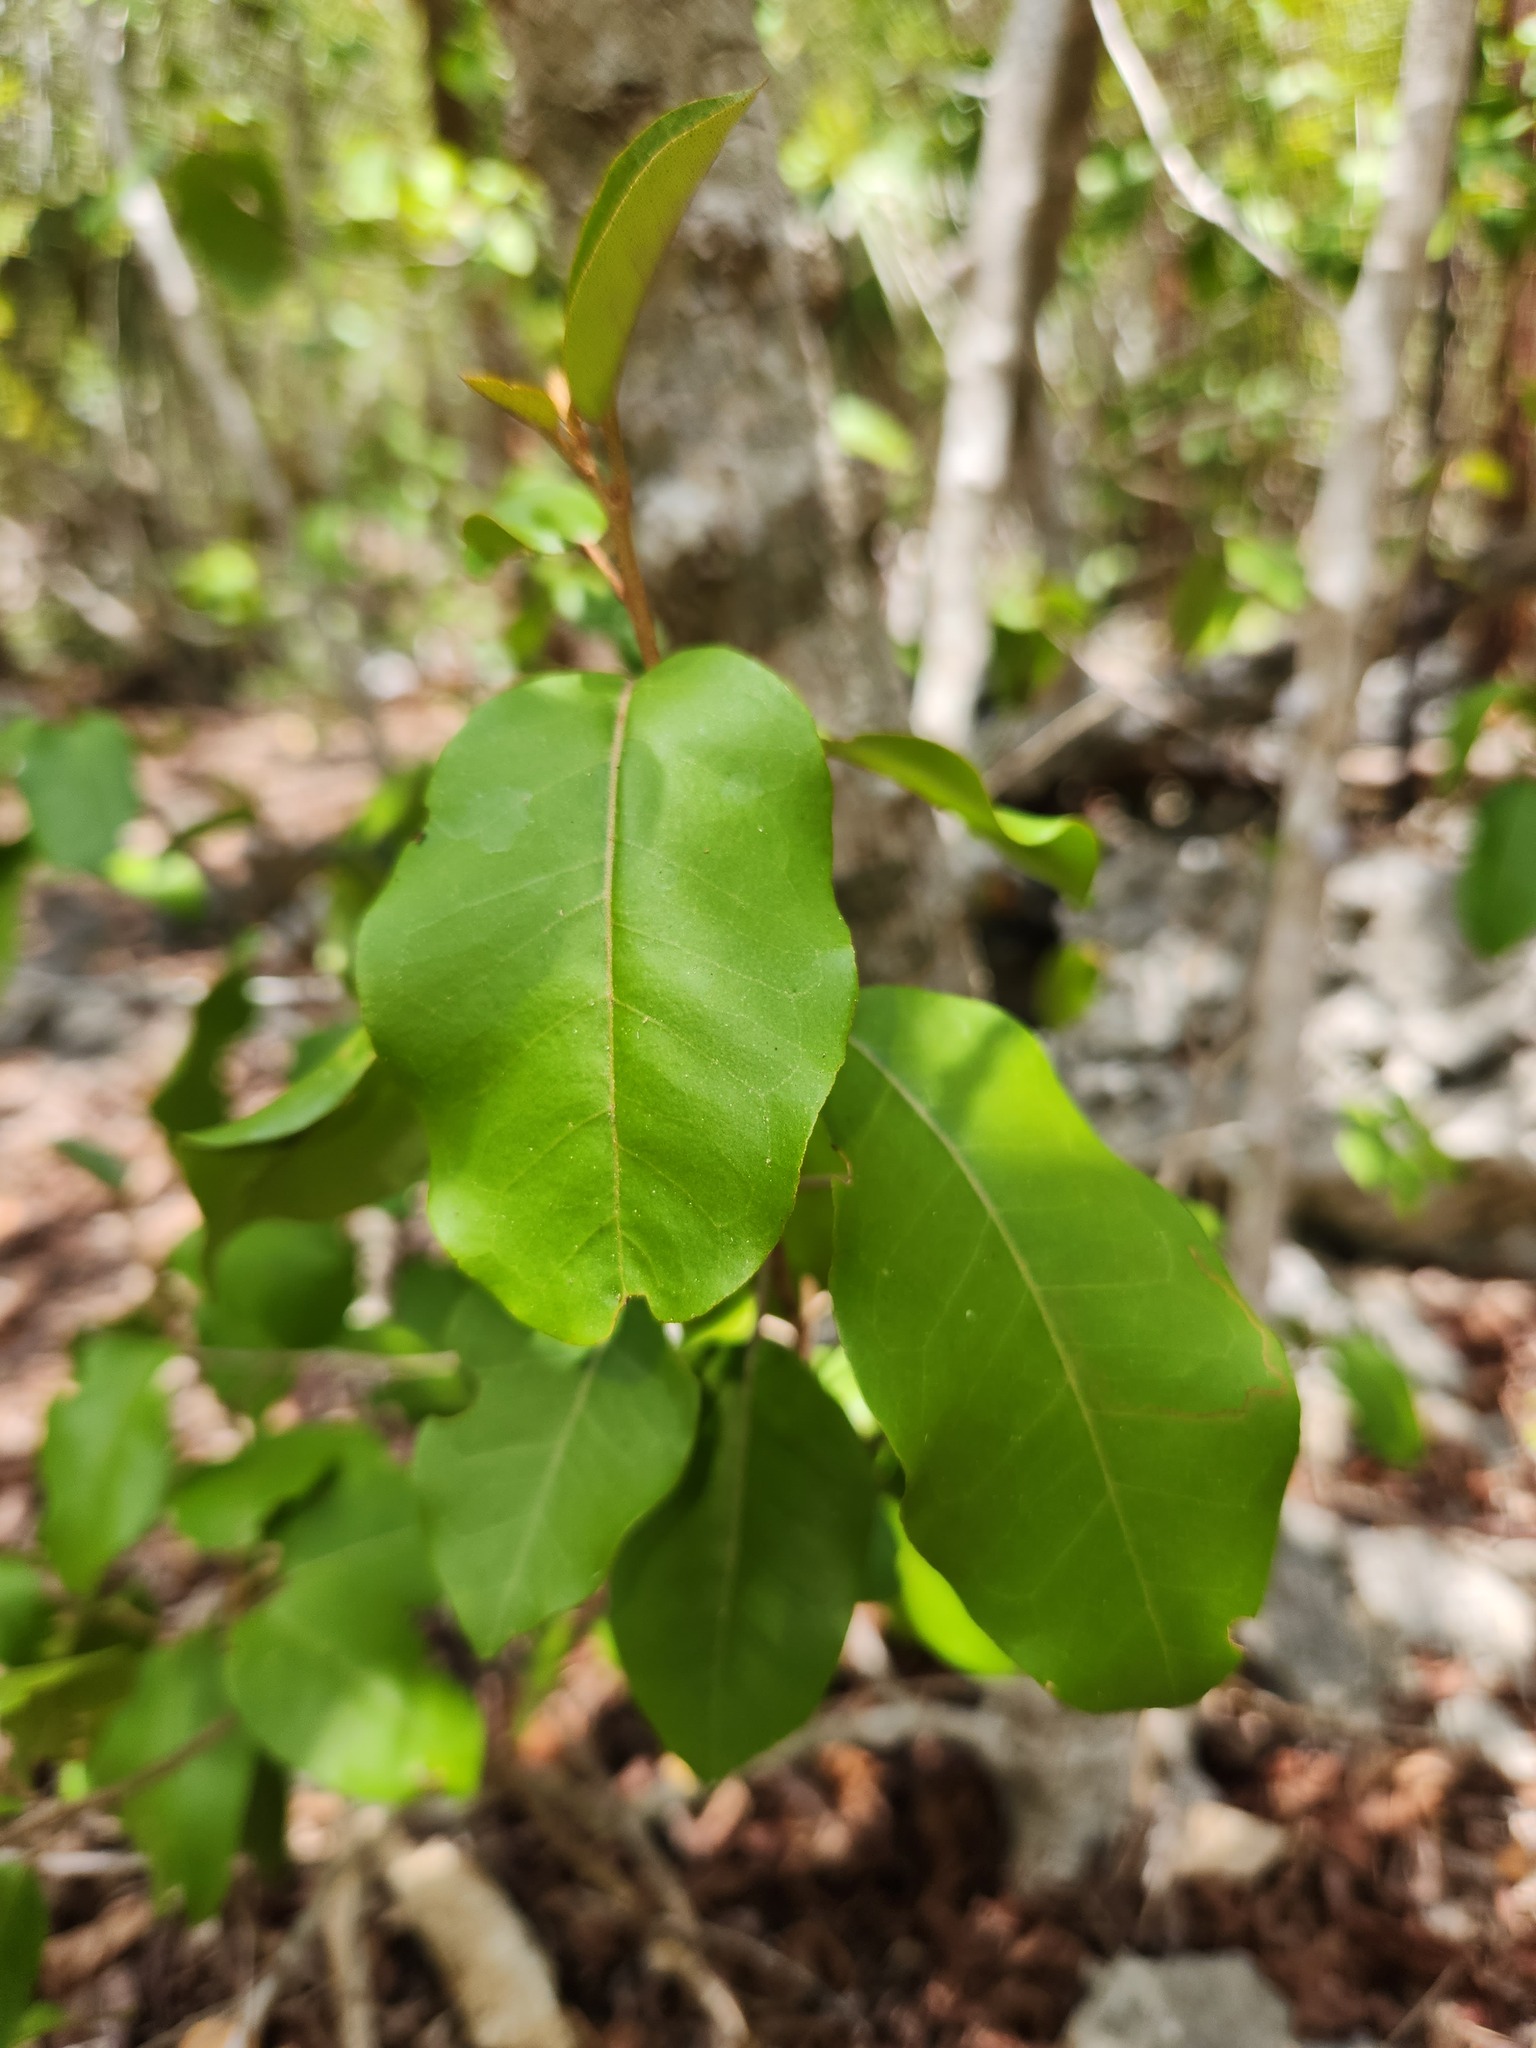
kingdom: Plantae
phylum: Tracheophyta
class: Magnoliopsida
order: Malpighiales
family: Euphorbiaceae
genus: Croton
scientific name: Croton nitens
